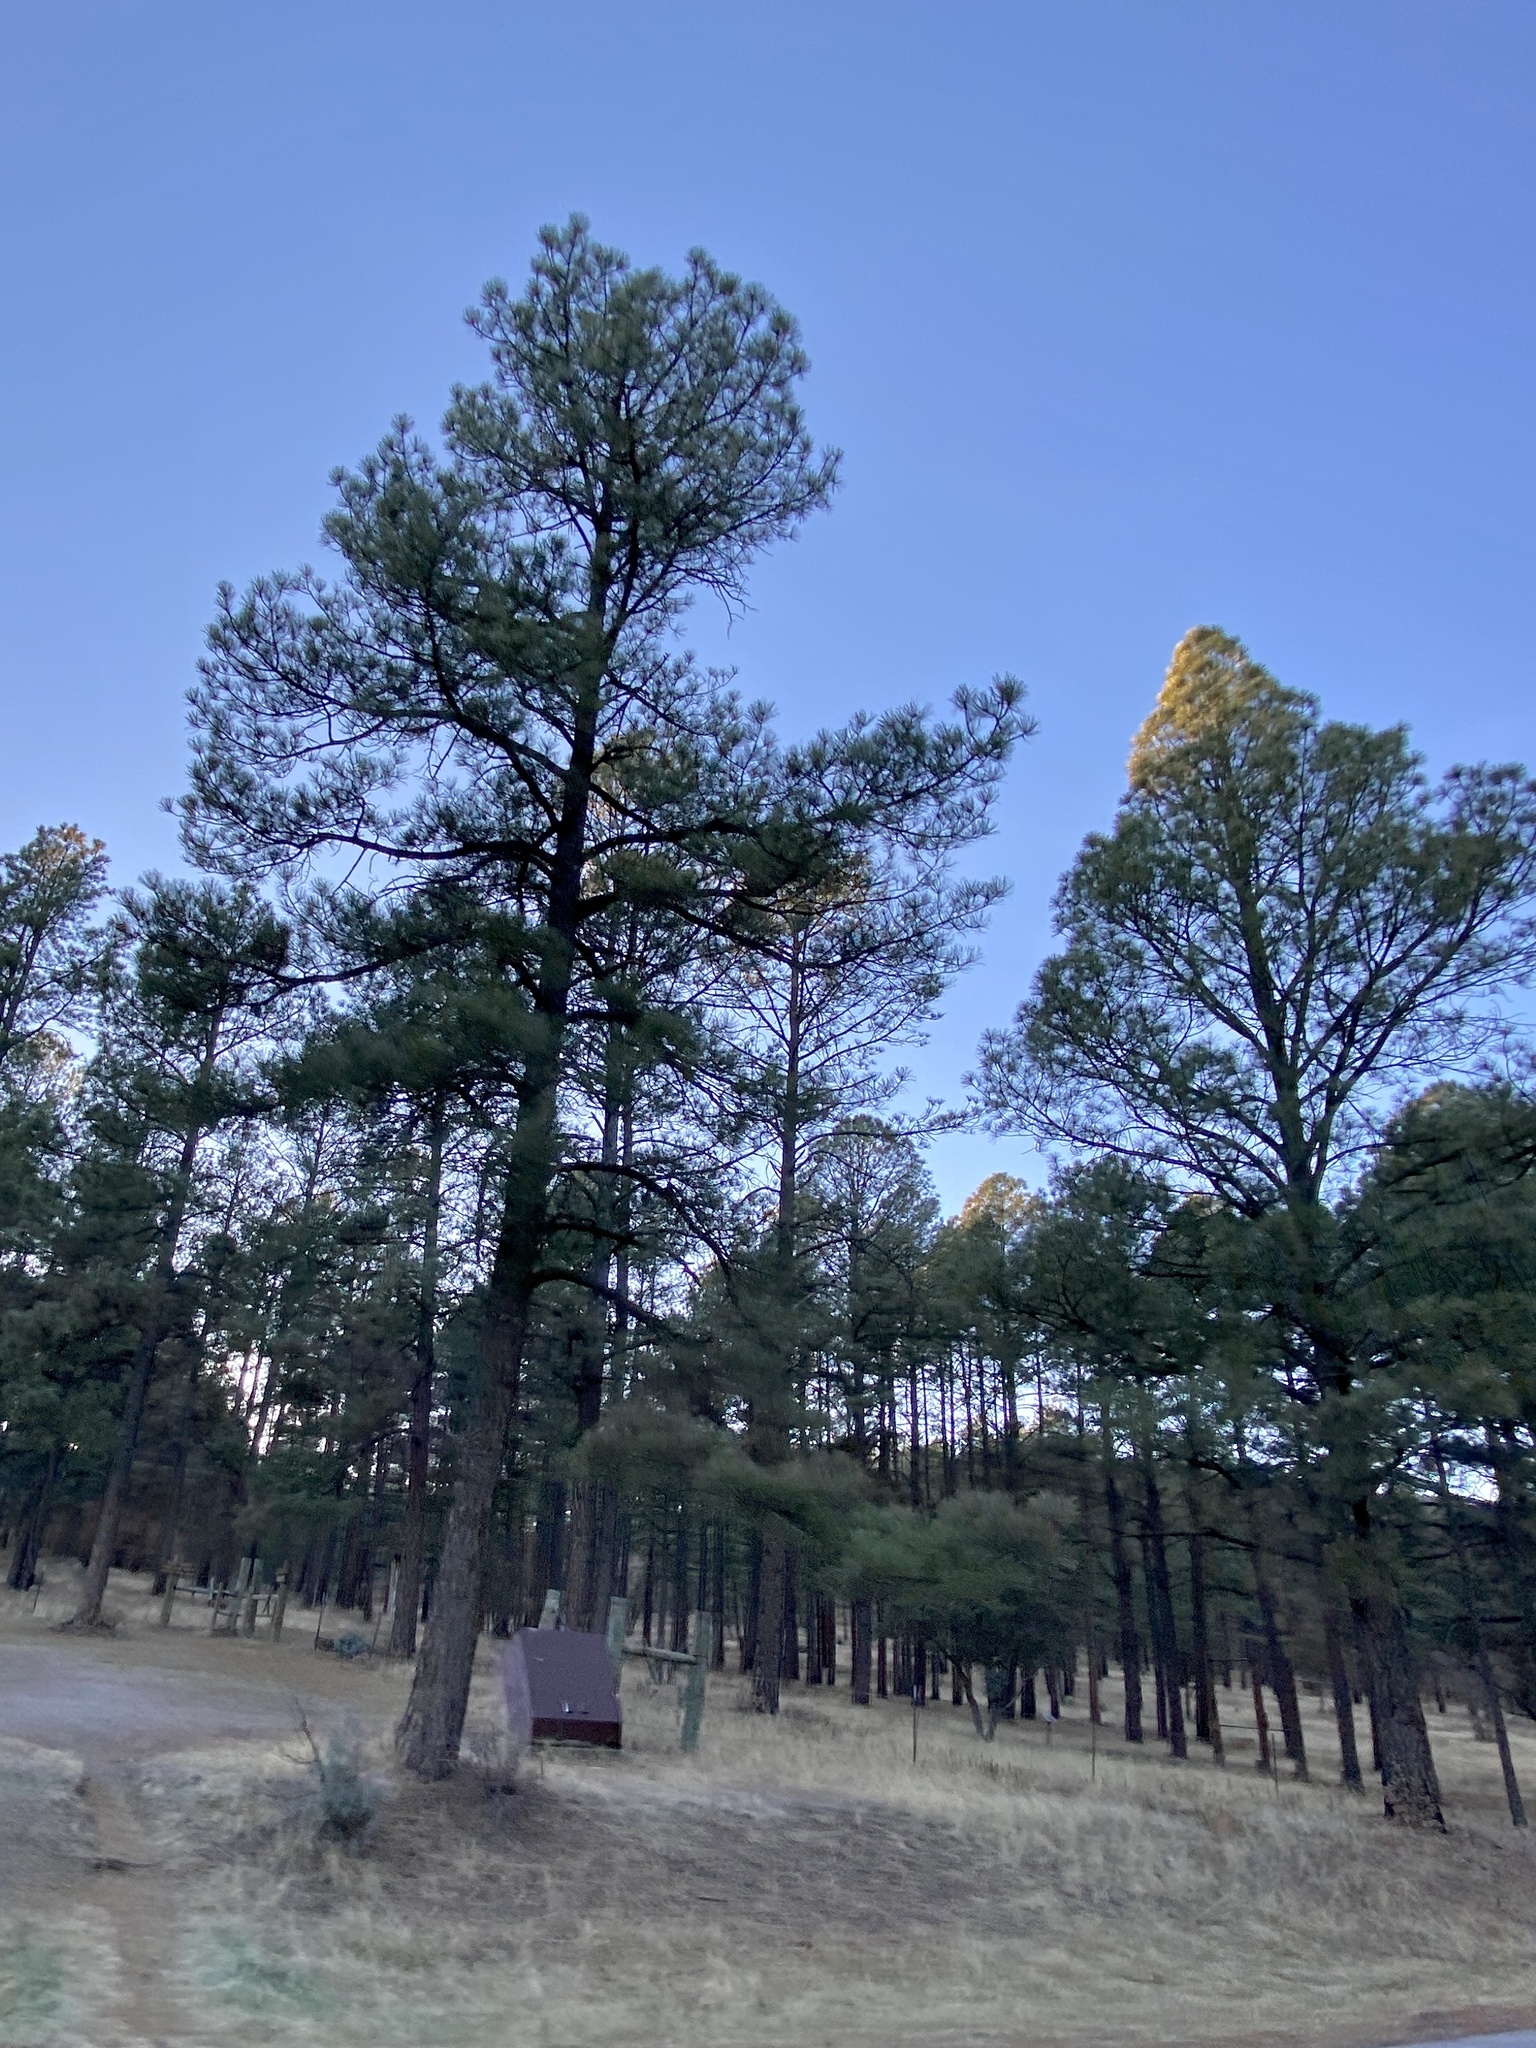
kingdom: Plantae
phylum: Tracheophyta
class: Pinopsida
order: Pinales
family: Pinaceae
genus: Pinus
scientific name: Pinus ponderosa
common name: Western yellow-pine
